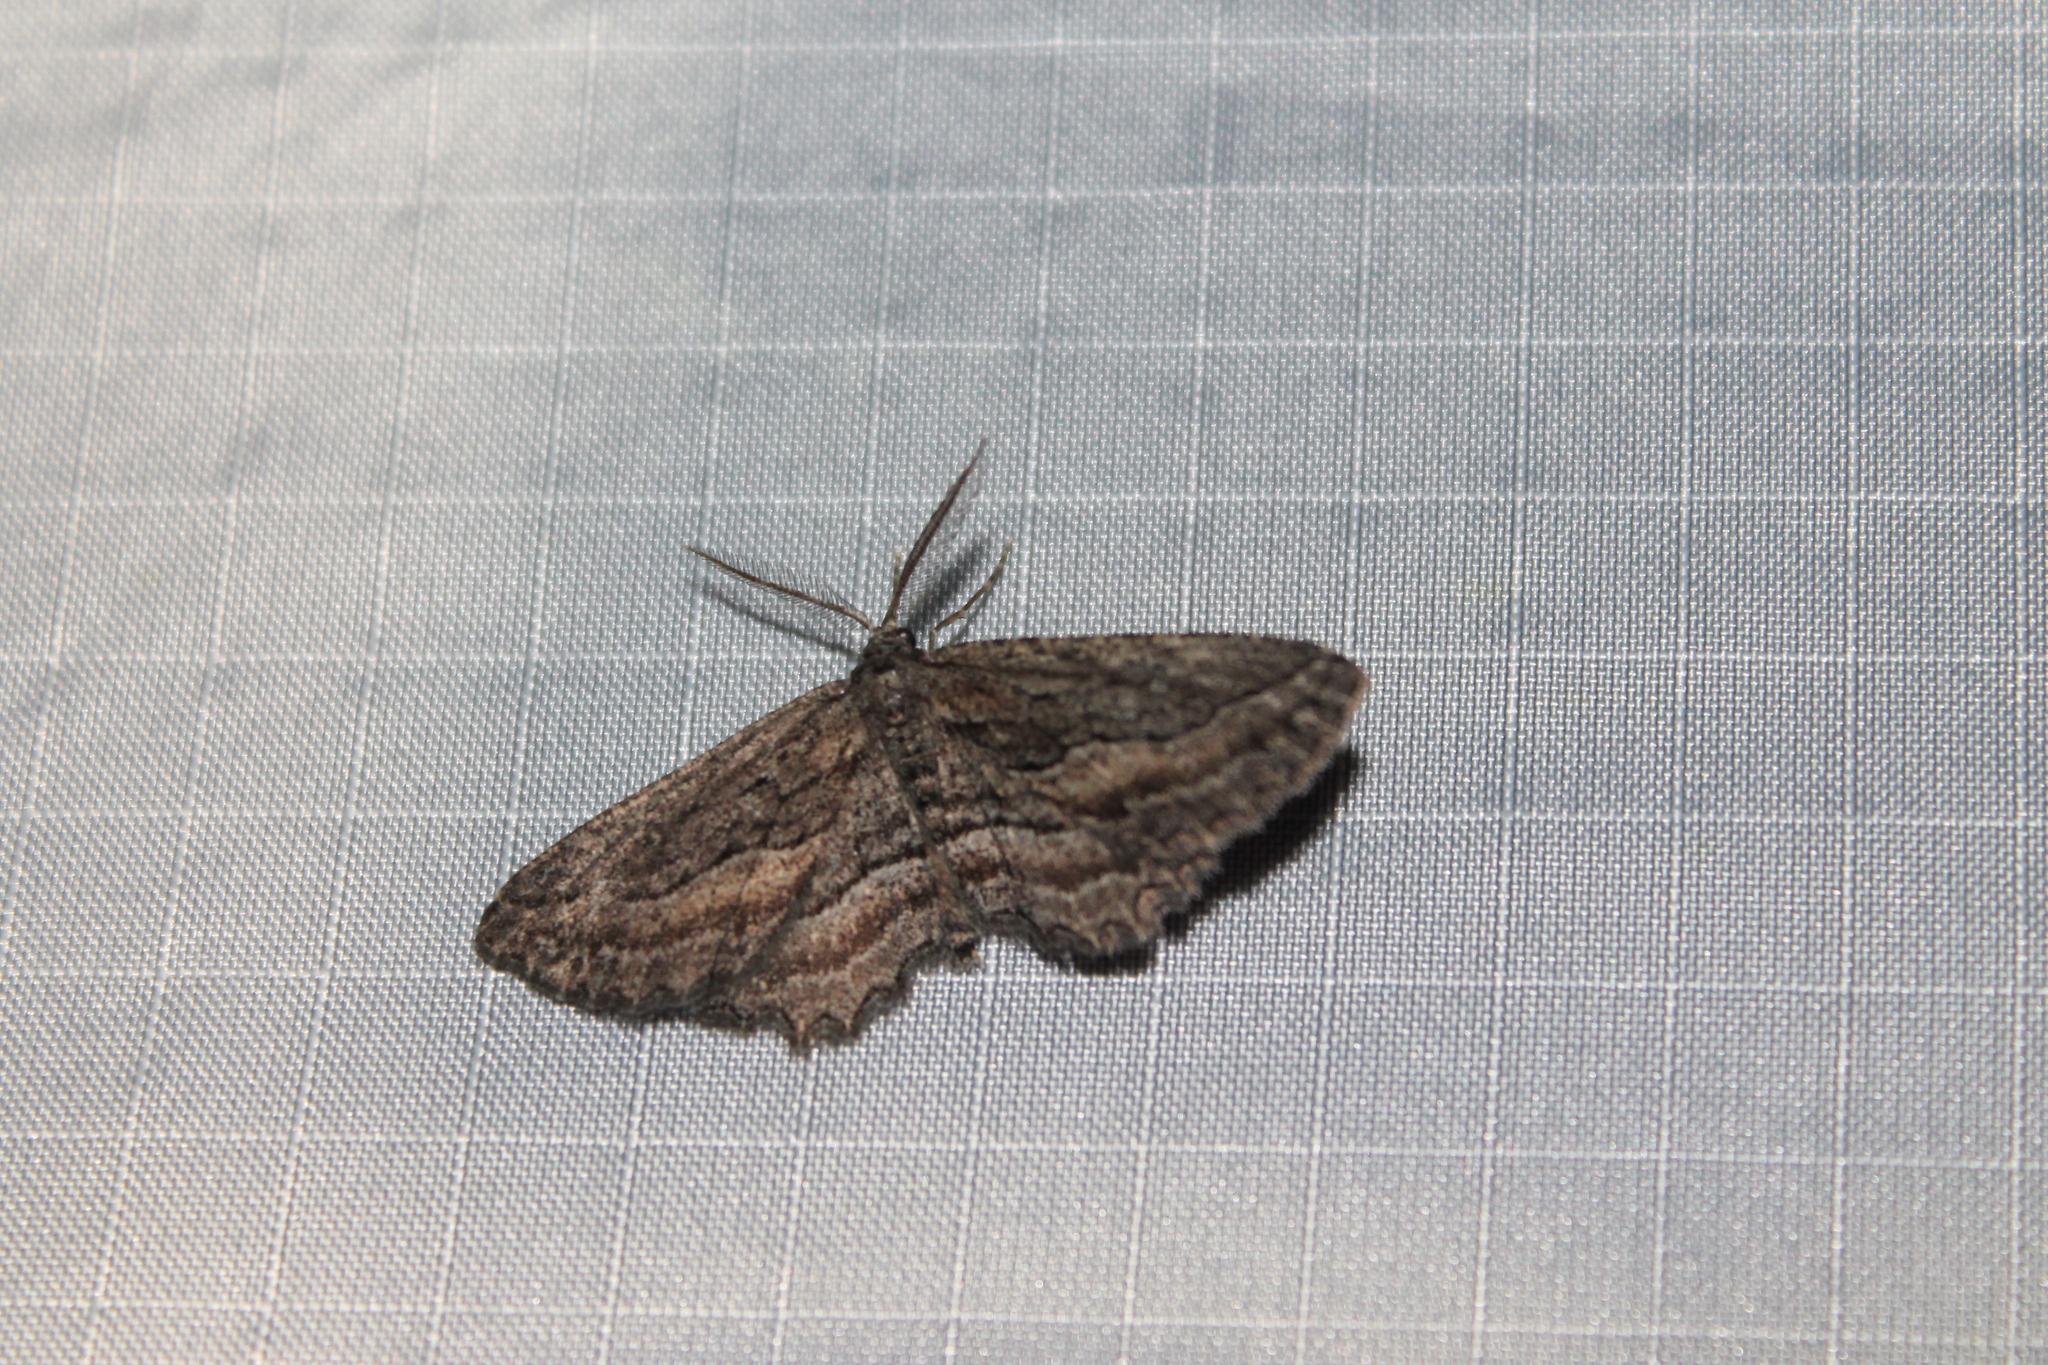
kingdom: Animalia
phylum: Arthropoda
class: Insecta
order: Lepidoptera
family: Geometridae
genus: Aethaloida
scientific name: Aethaloida packardaria
